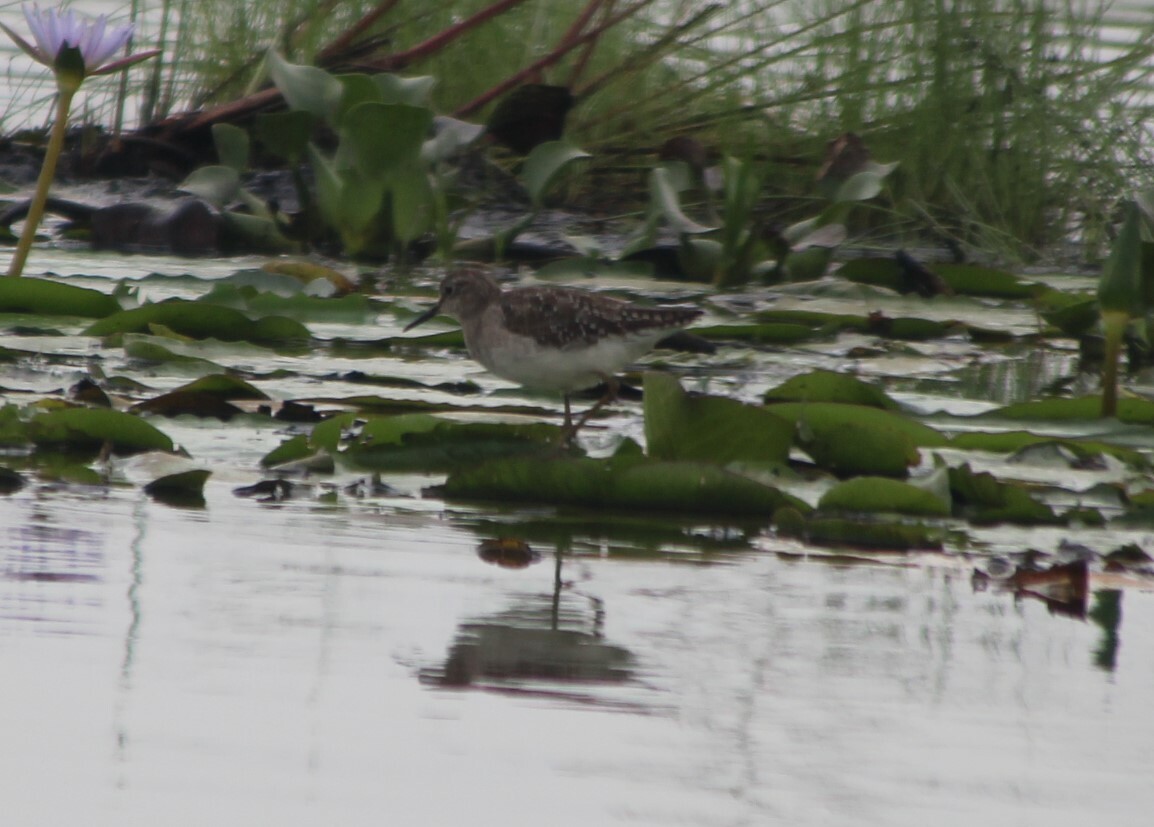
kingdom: Animalia
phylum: Chordata
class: Aves
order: Charadriiformes
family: Scolopacidae
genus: Tringa
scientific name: Tringa glareola
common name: Wood sandpiper
